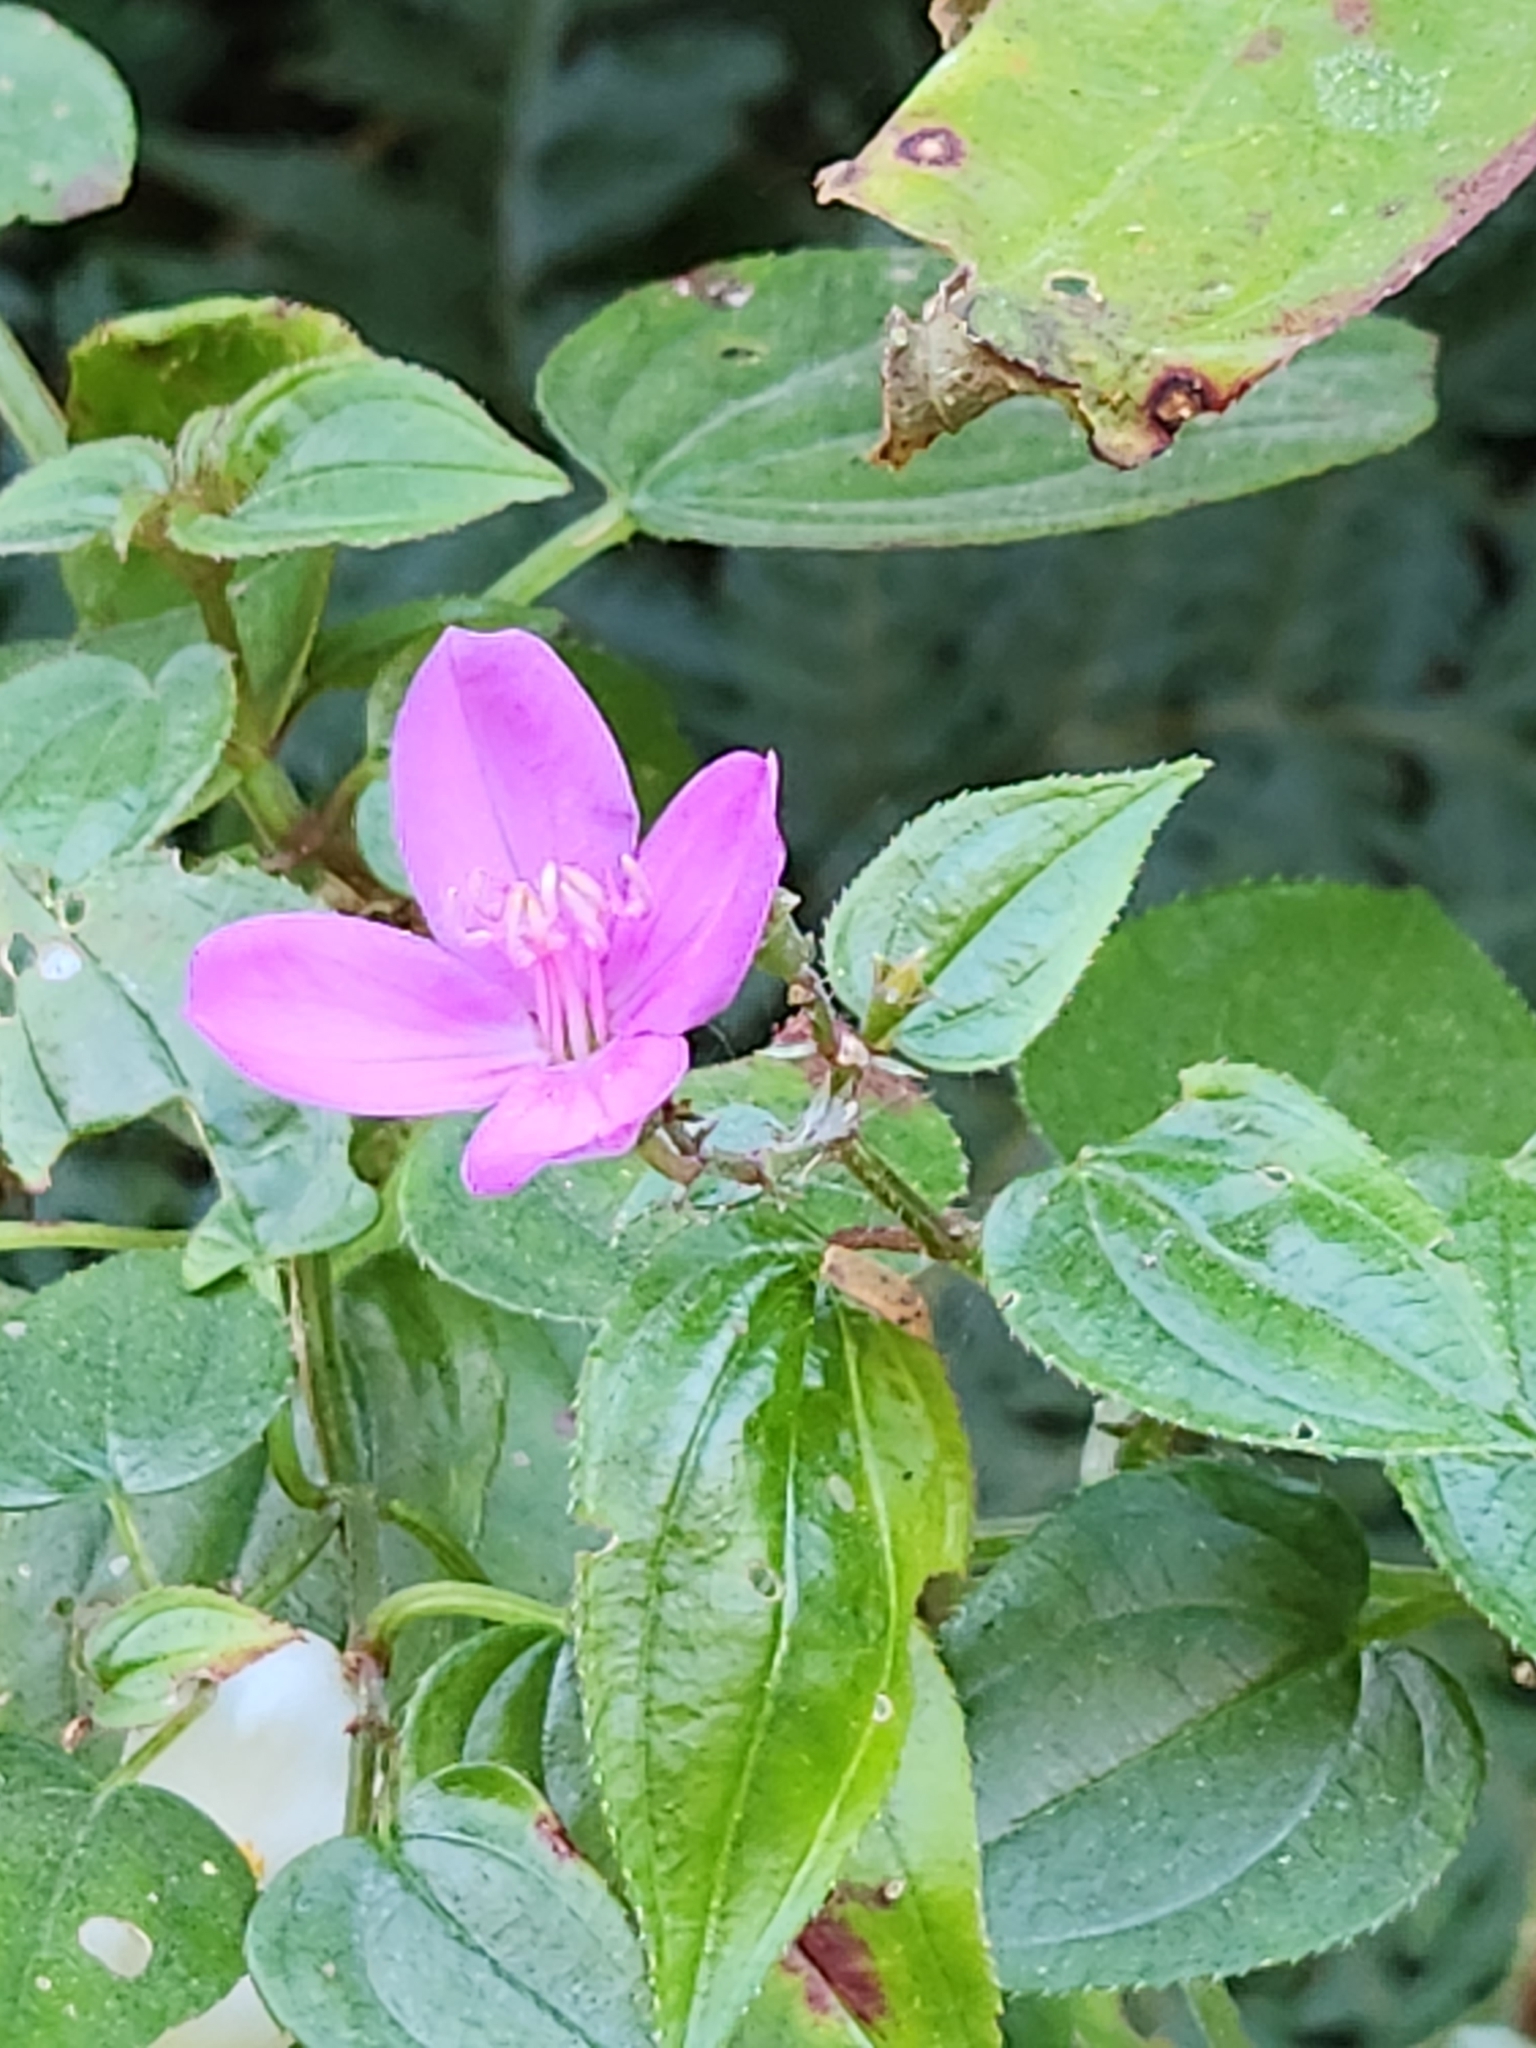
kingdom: Plantae
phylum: Tracheophyta
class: Magnoliopsida
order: Myrtales
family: Melastomataceae
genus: Arthrostemma
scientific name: Arthrostemma ciliatum
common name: Everblooming eavender
